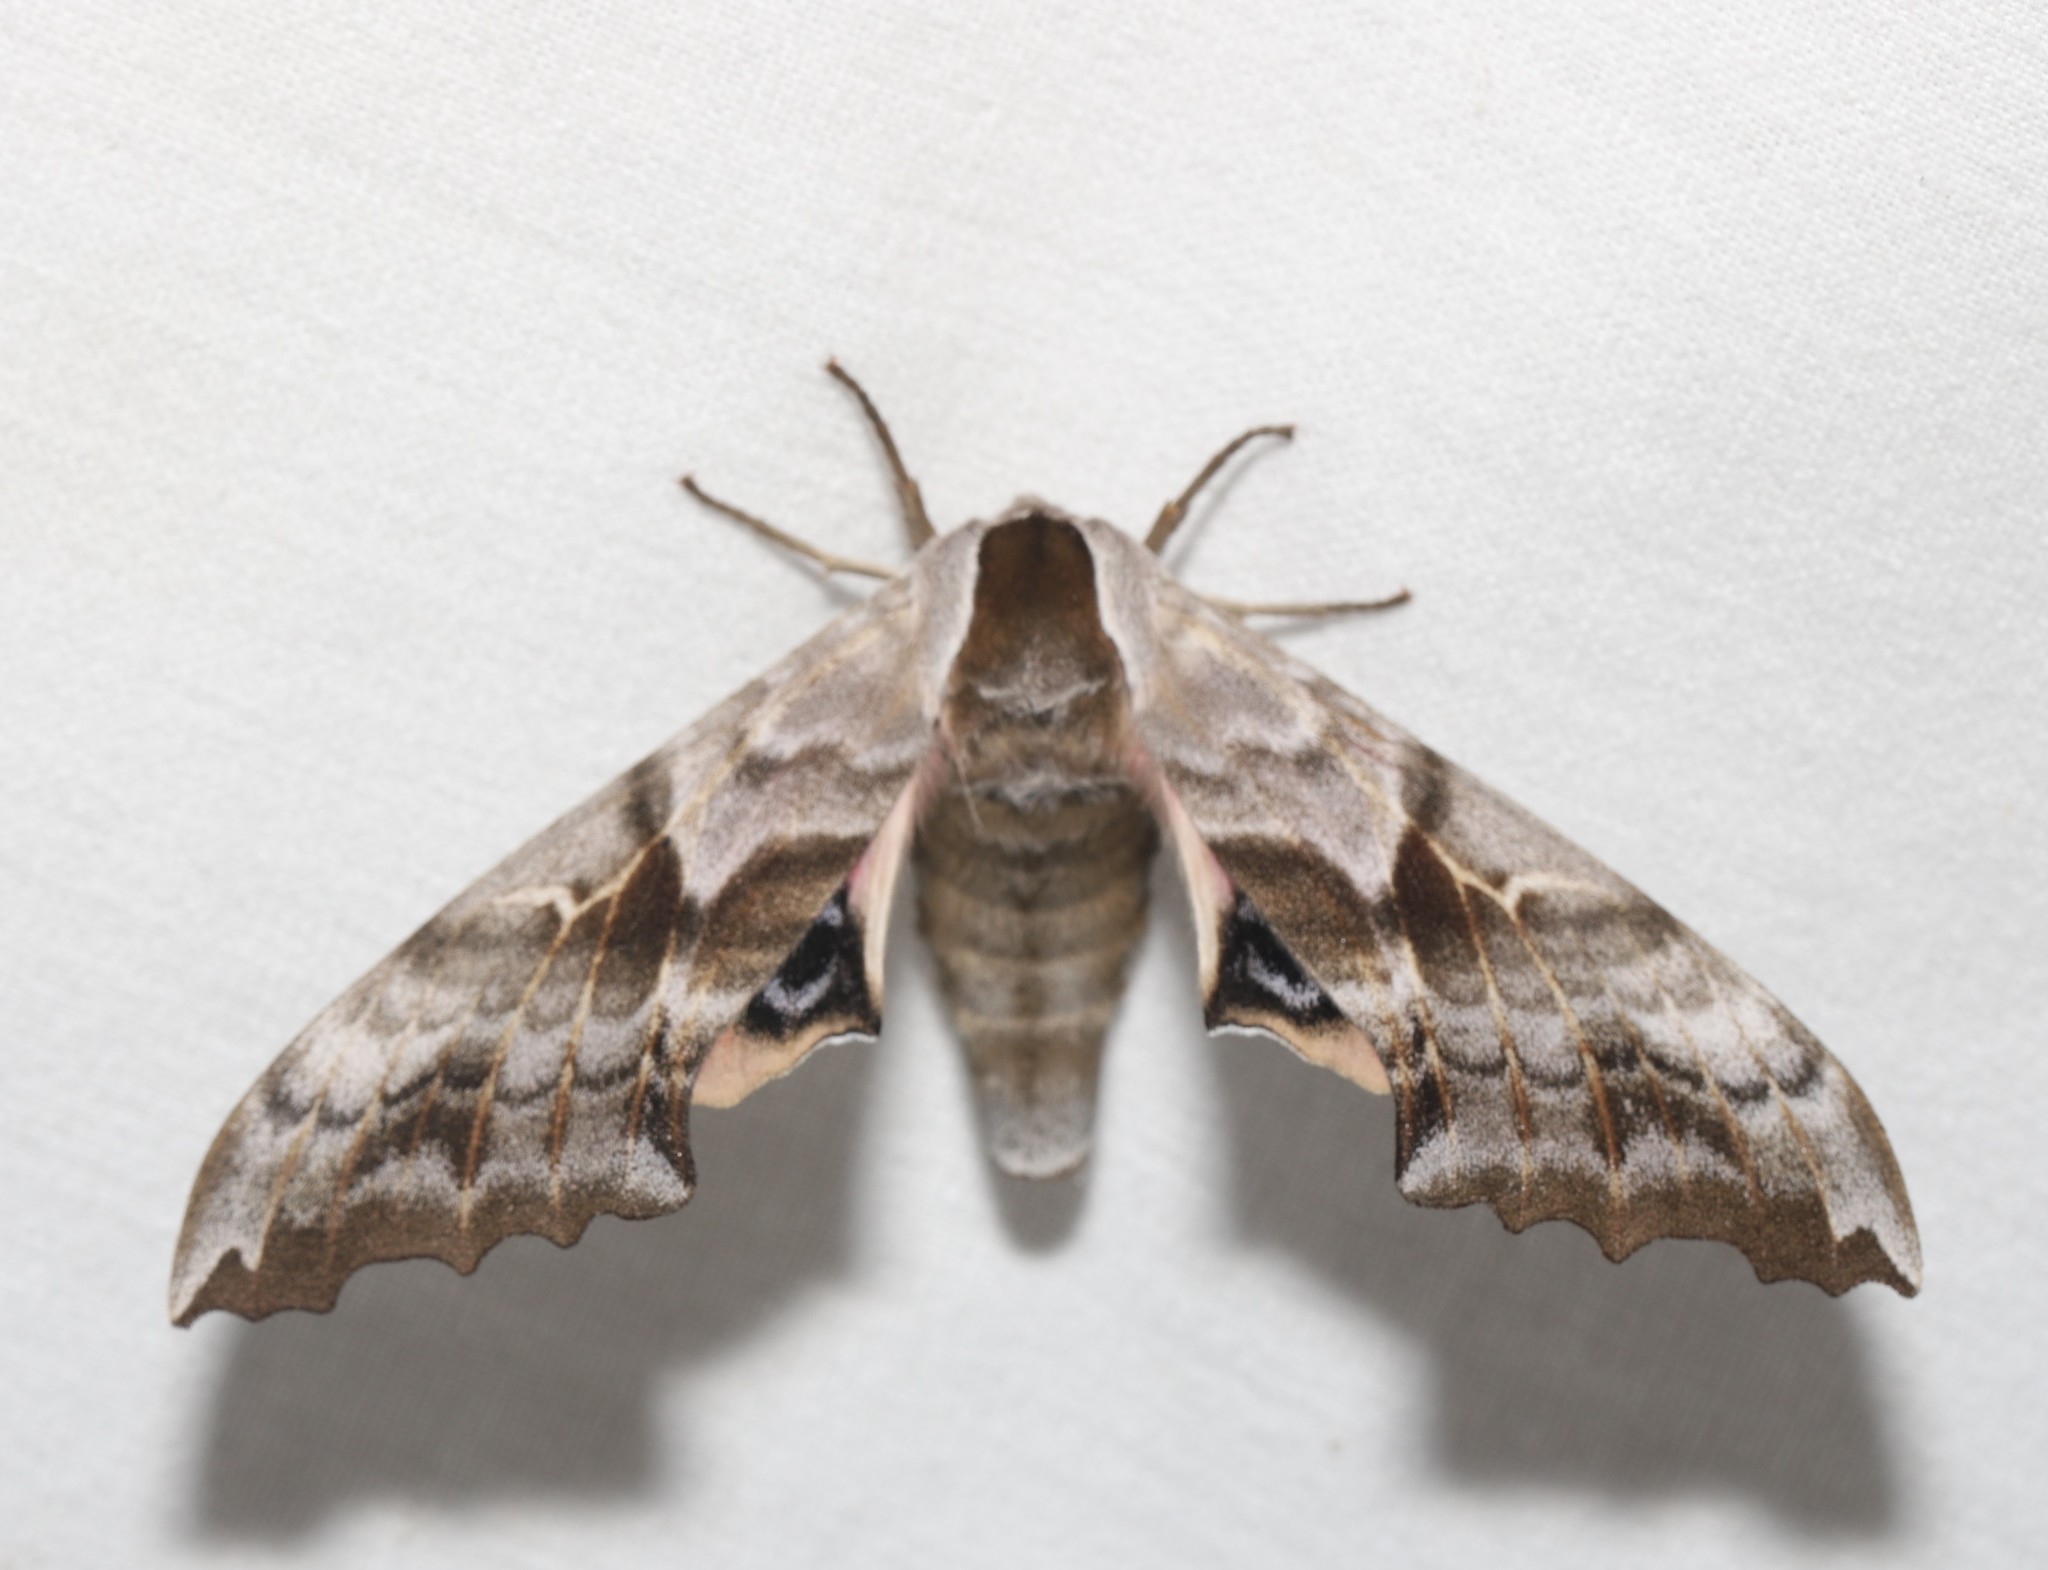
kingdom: Animalia
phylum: Arthropoda
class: Insecta
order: Lepidoptera
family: Sphingidae
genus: Smerinthus
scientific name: Smerinthus cerisyi
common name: Cerisy's sphinx moth
